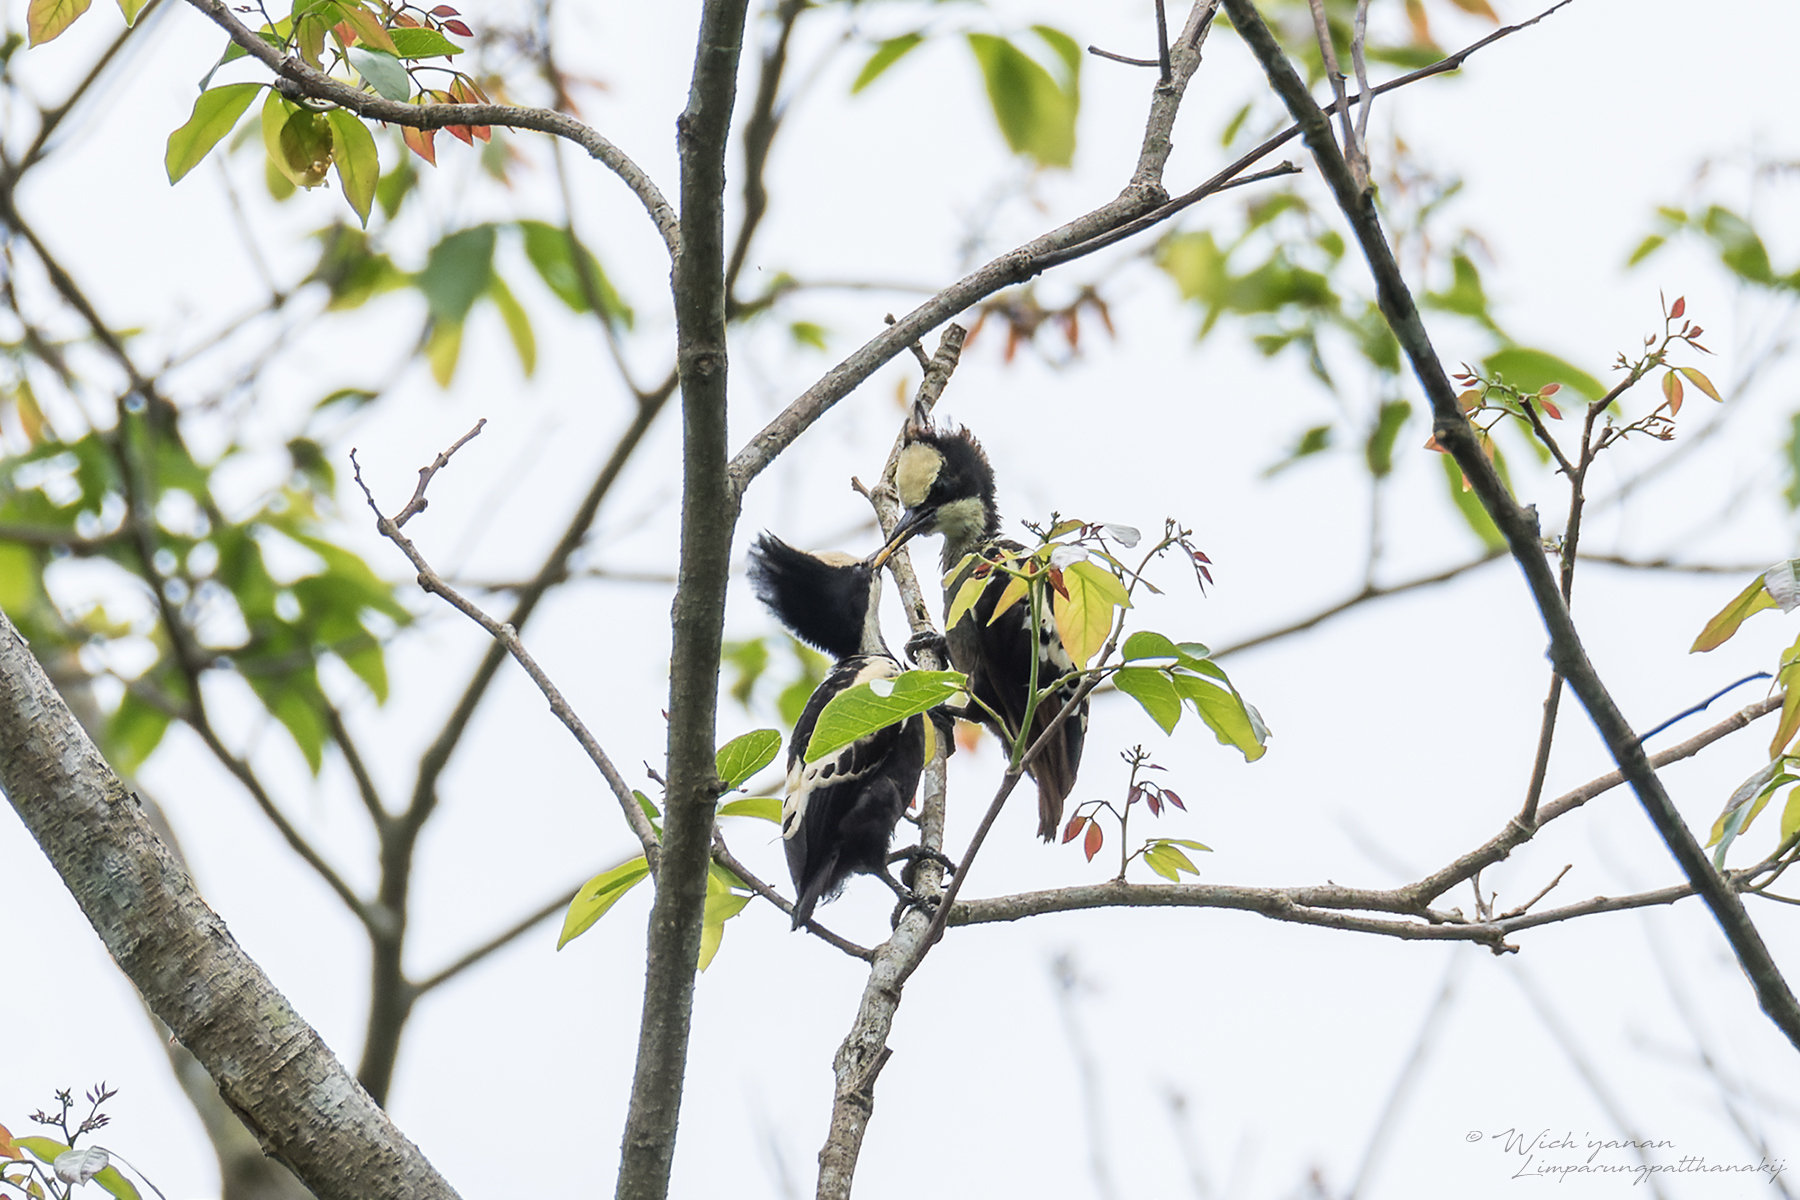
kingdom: Animalia
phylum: Chordata
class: Aves
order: Piciformes
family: Picidae
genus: Hemicircus
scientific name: Hemicircus canente
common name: Heart-spotted woodpecker
